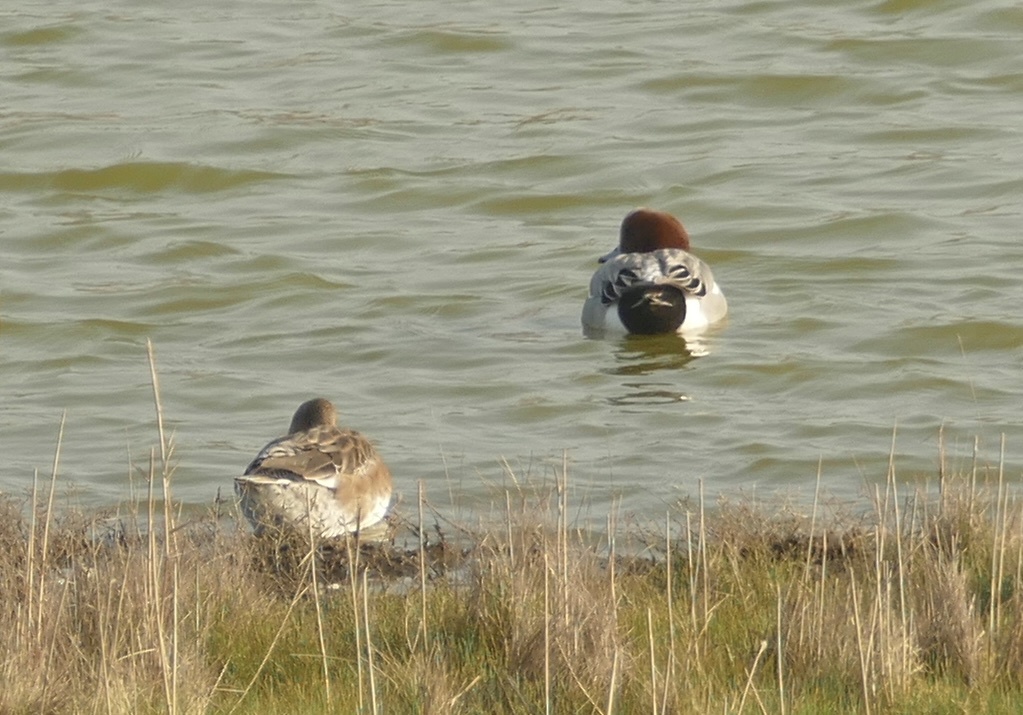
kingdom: Animalia
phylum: Chordata
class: Aves
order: Anseriformes
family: Anatidae
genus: Mareca
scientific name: Mareca penelope
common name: Eurasian wigeon
